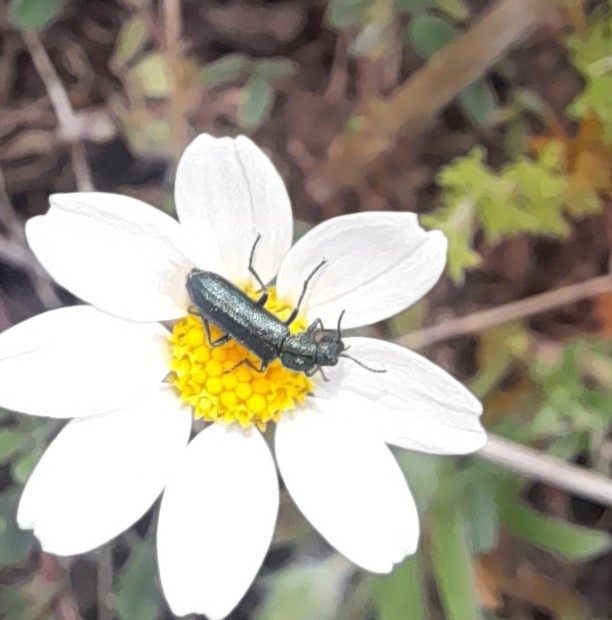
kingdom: Animalia
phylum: Arthropoda
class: Insecta
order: Coleoptera
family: Dasytidae
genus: Psilothrix
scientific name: Psilothrix viridicoerulea
